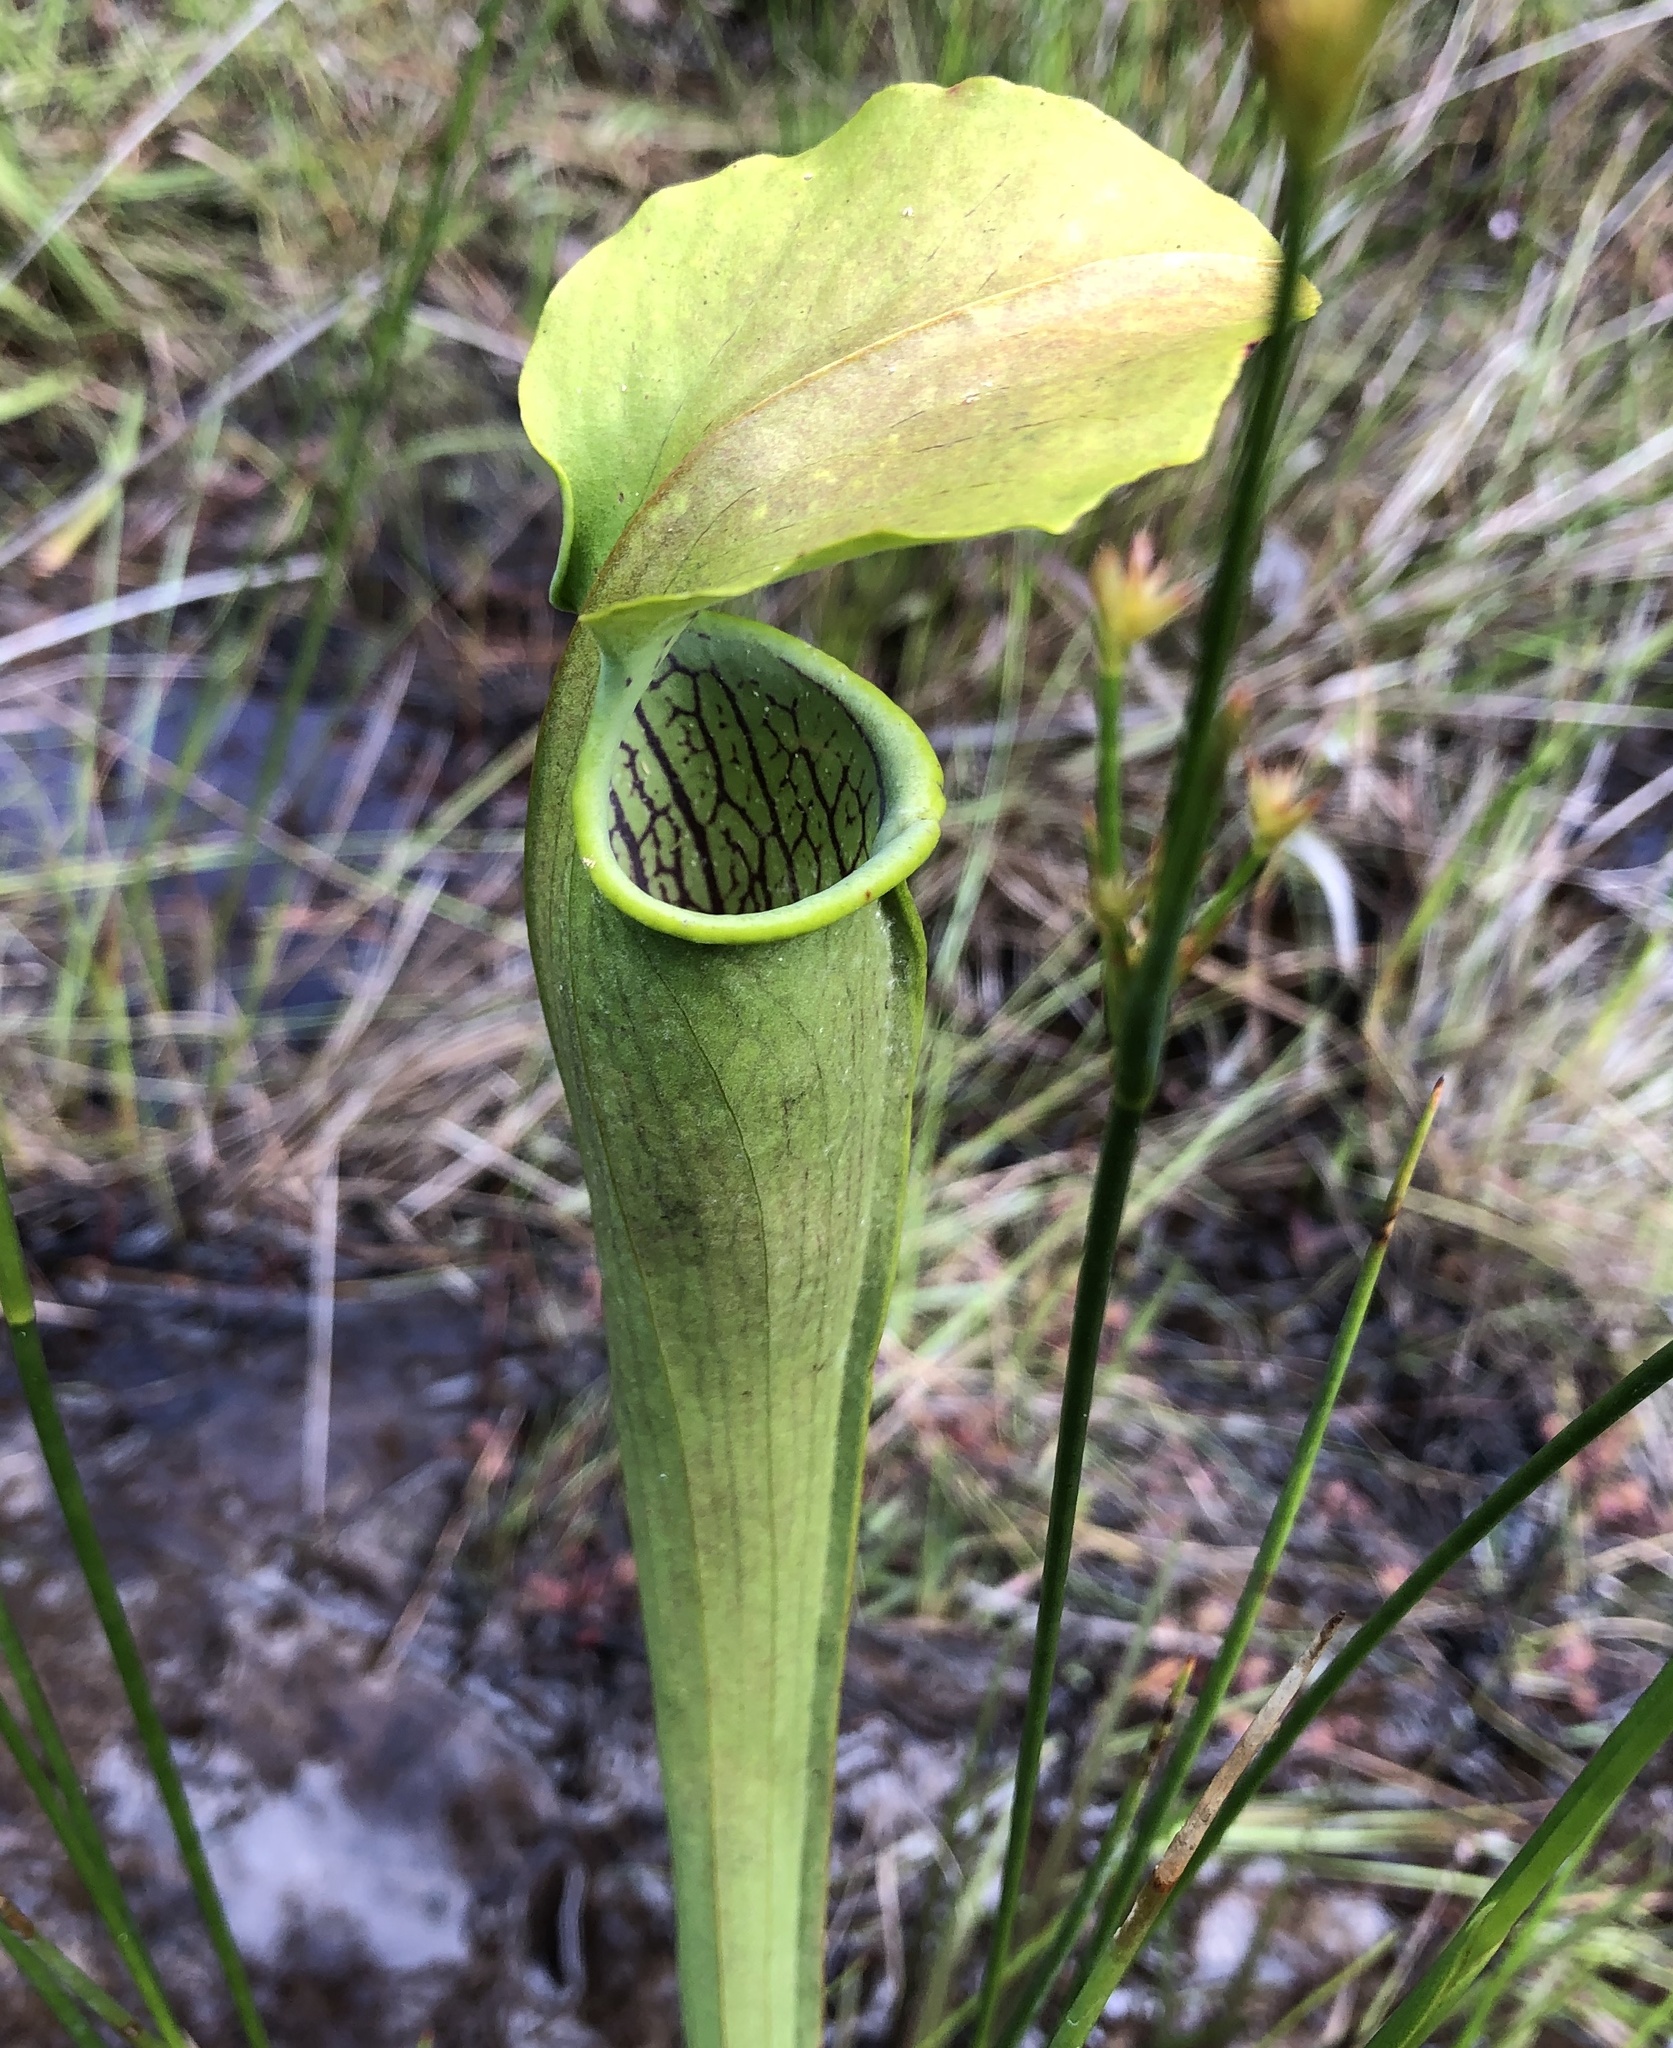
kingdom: Plantae
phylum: Tracheophyta
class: Magnoliopsida
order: Ericales
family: Sarraceniaceae
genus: Sarracenia
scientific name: Sarracenia alata
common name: Yellow trumpets
